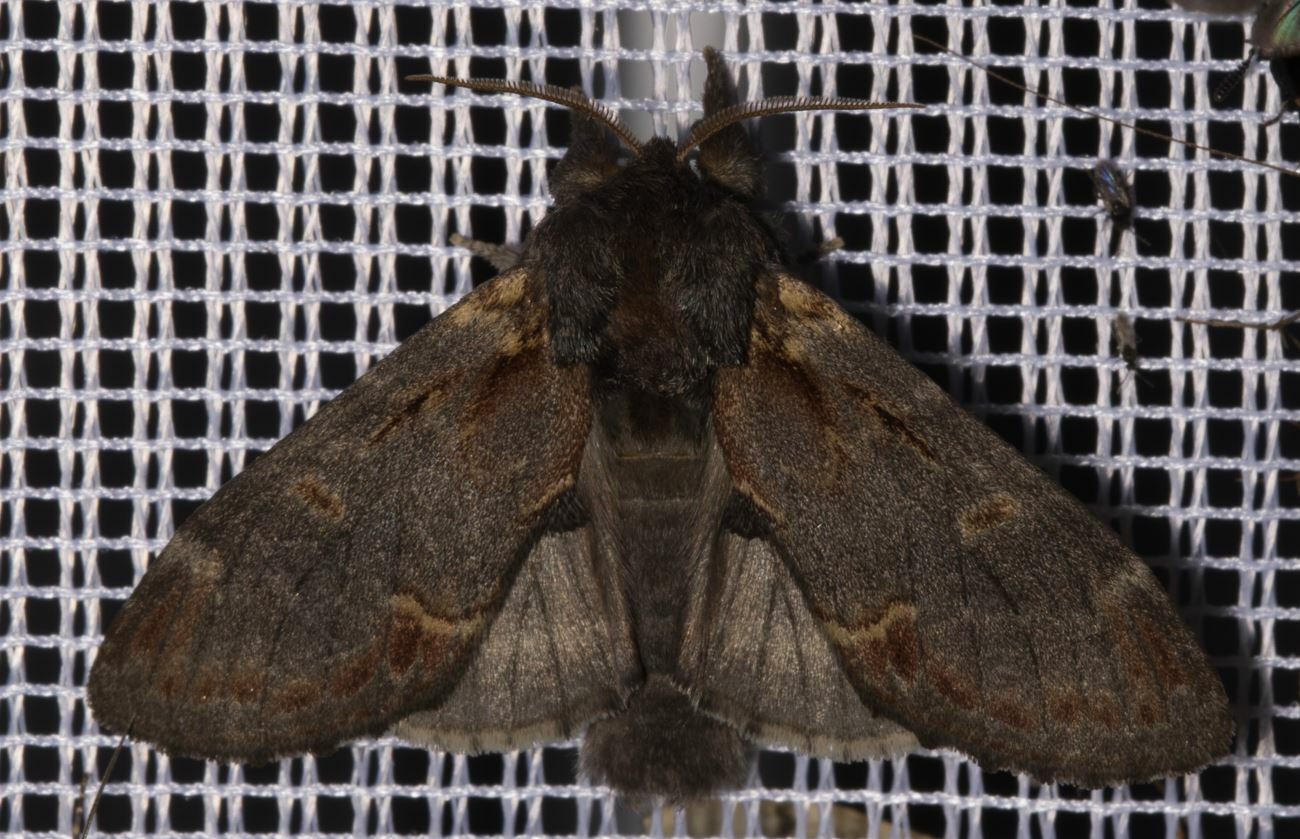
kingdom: Animalia
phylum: Arthropoda
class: Insecta
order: Lepidoptera
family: Notodontidae
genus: Notodonta
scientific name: Notodonta dromedarius
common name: Iron prominent
